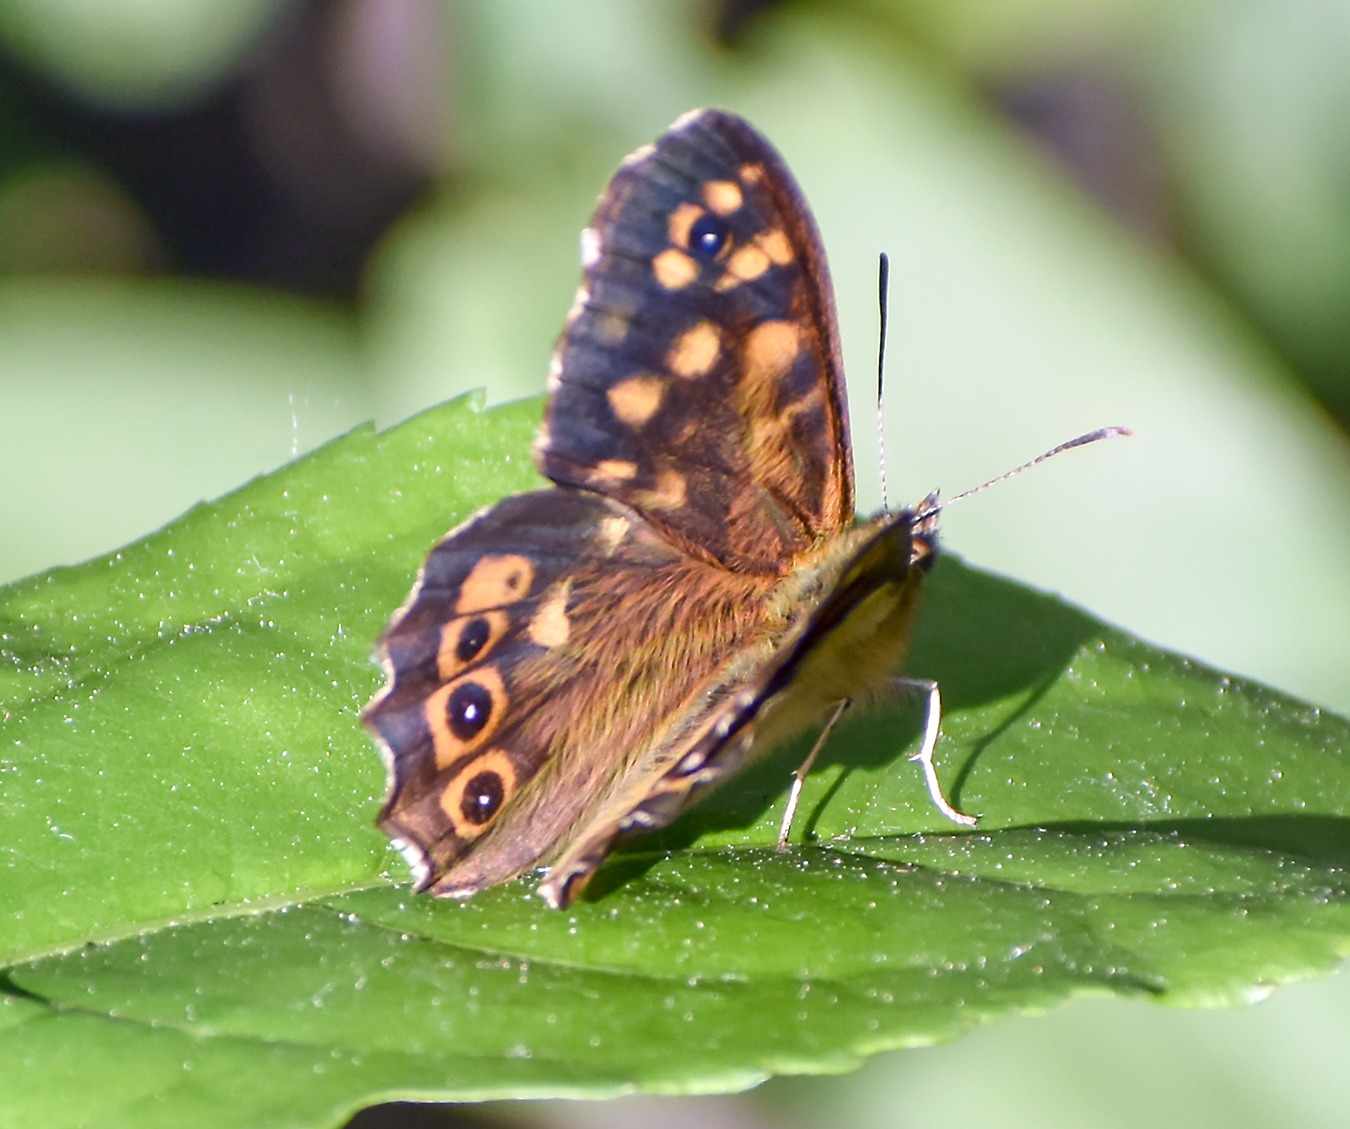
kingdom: Animalia
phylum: Arthropoda
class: Insecta
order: Lepidoptera
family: Nymphalidae
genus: Pararge
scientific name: Pararge aegeria
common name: Speckled wood
